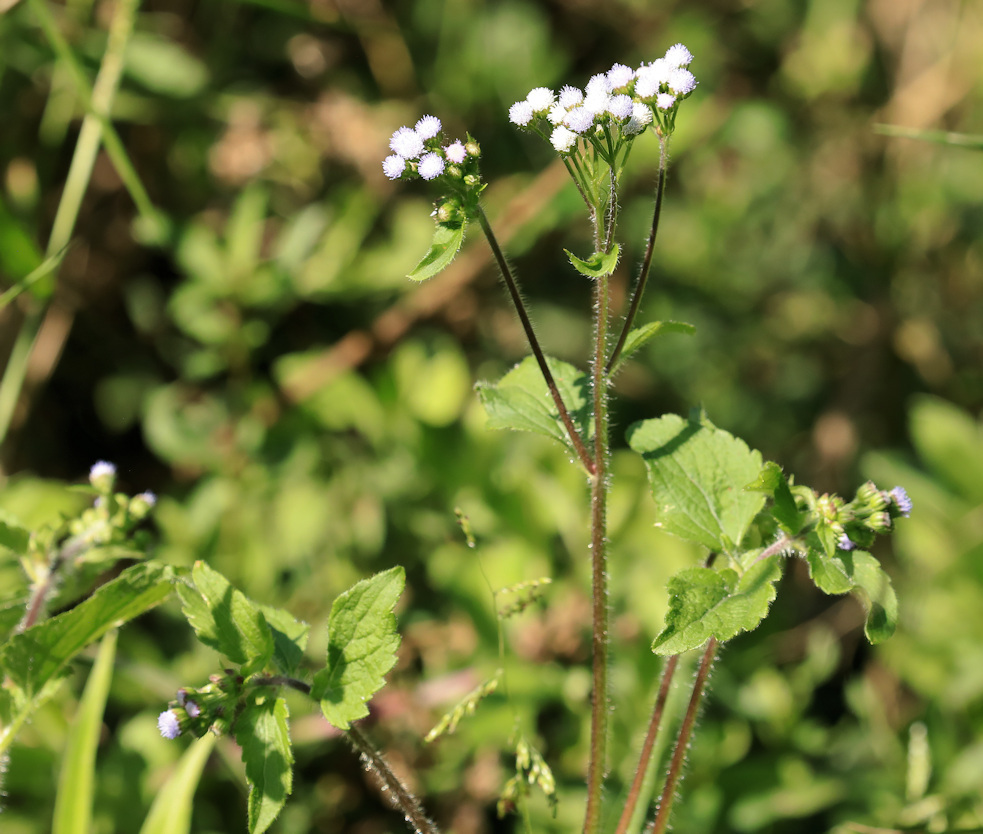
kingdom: Plantae
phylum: Tracheophyta
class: Magnoliopsida
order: Asterales
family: Asteraceae
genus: Ageratum
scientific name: Ageratum conyzoides
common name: Tropical whiteweed
